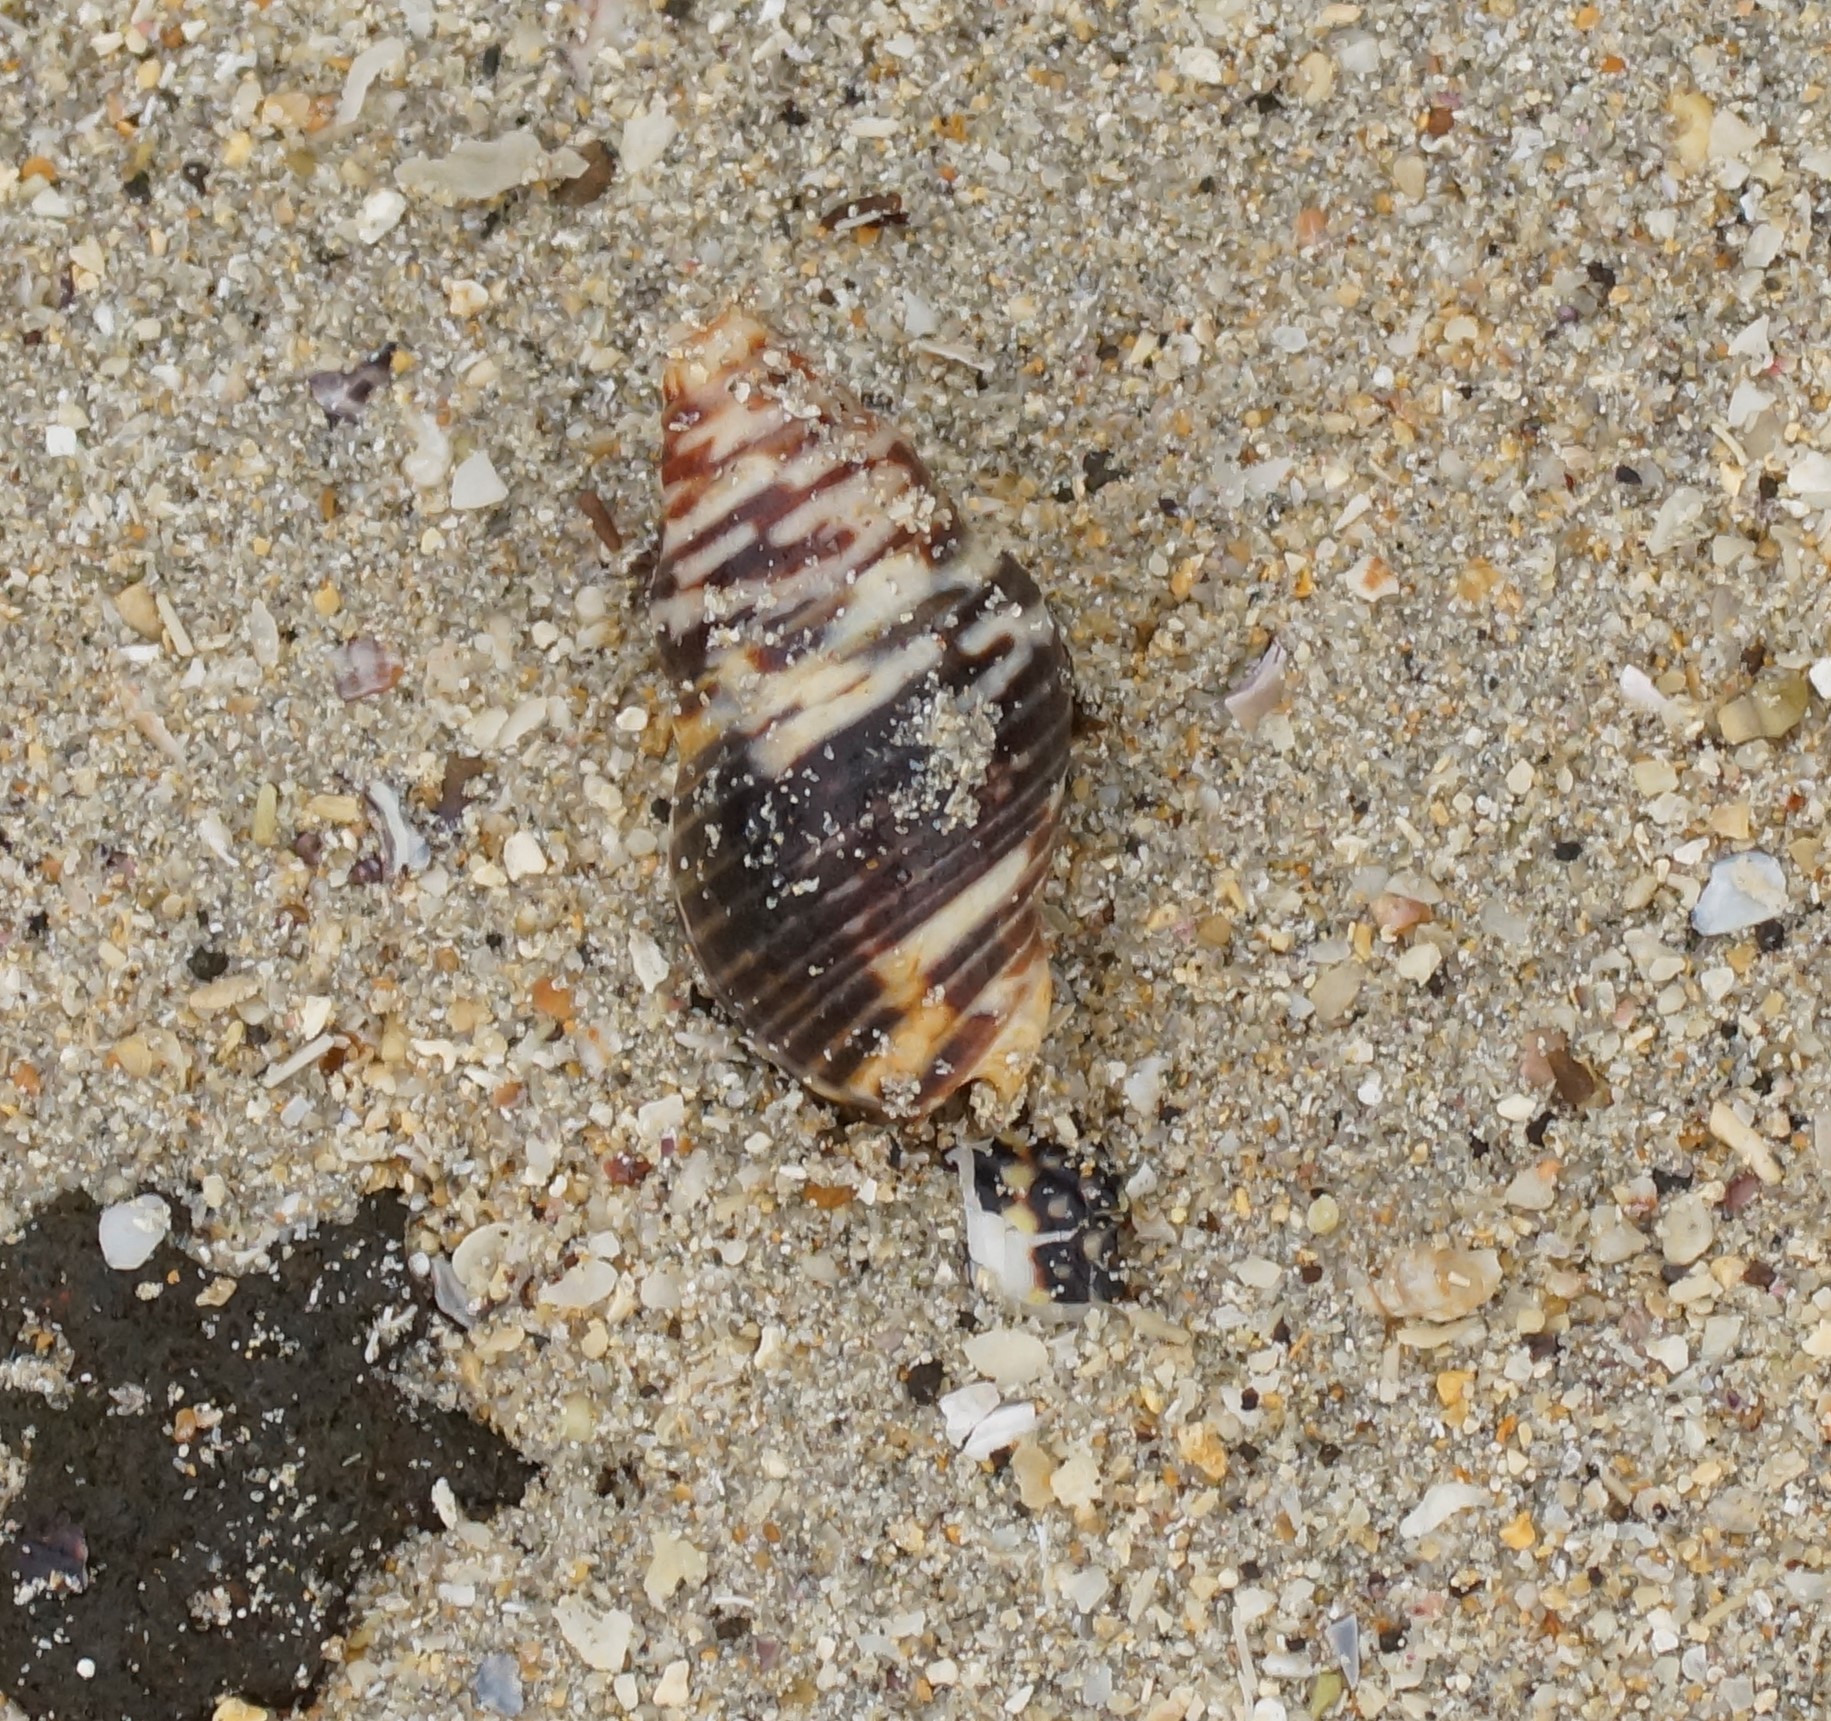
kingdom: Animalia
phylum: Mollusca
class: Gastropoda
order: Neogastropoda
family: Cominellidae
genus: Cominella
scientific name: Cominella lineolata
